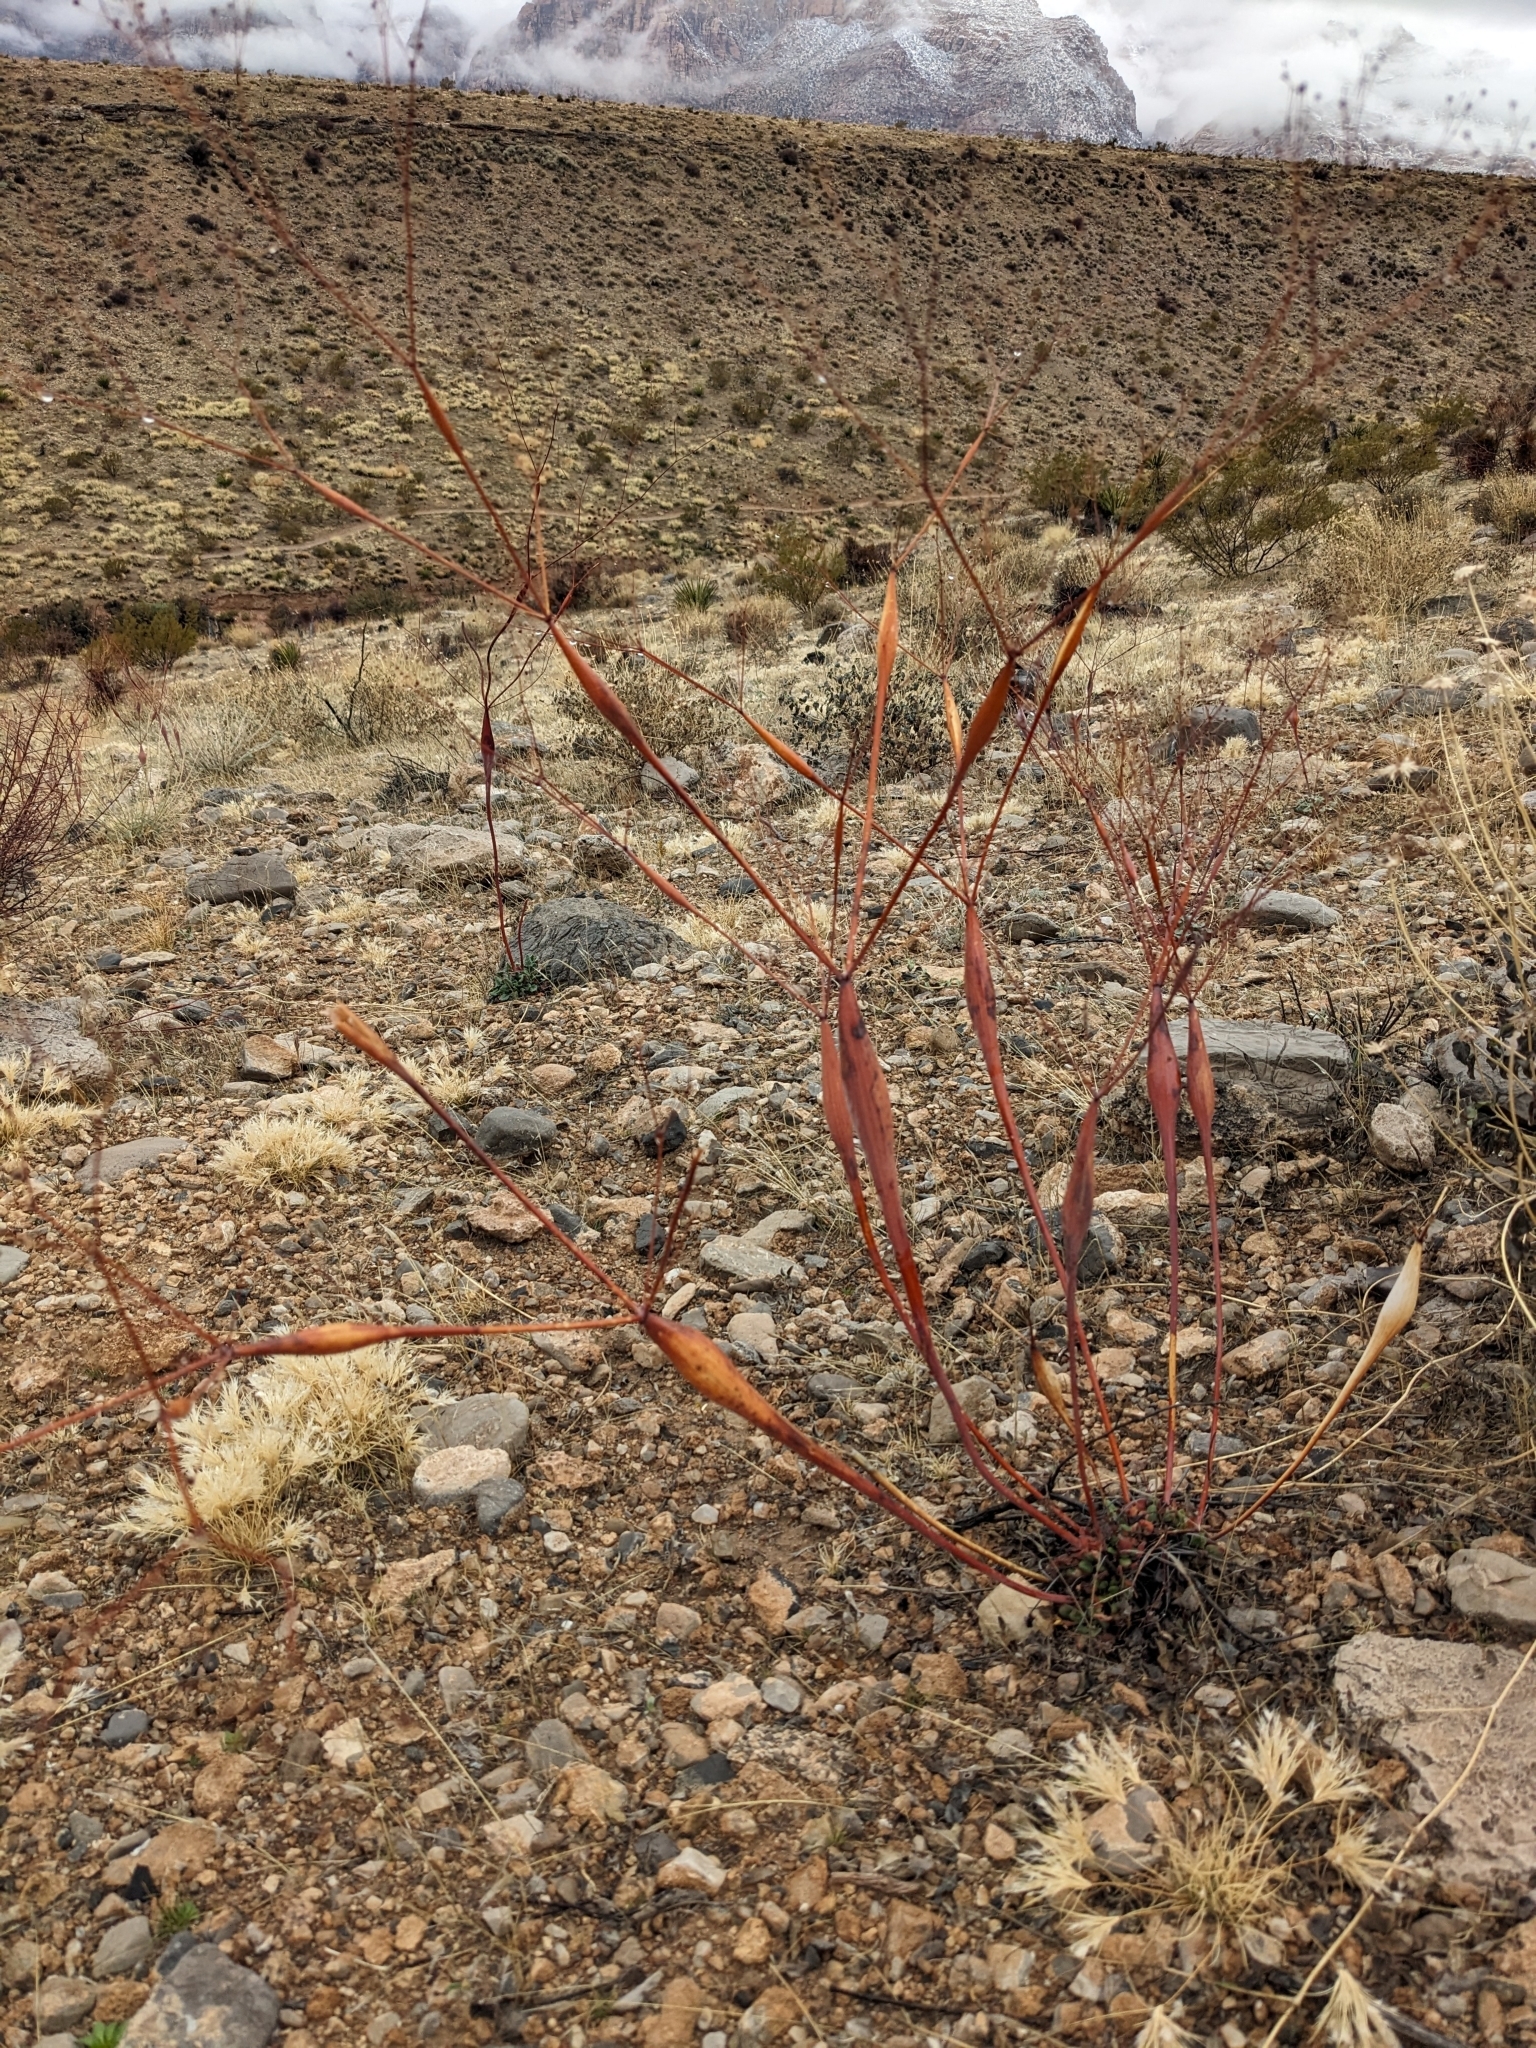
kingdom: Plantae
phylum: Tracheophyta
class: Magnoliopsida
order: Caryophyllales
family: Polygonaceae
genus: Eriogonum
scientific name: Eriogonum inflatum
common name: Desert trumpet
